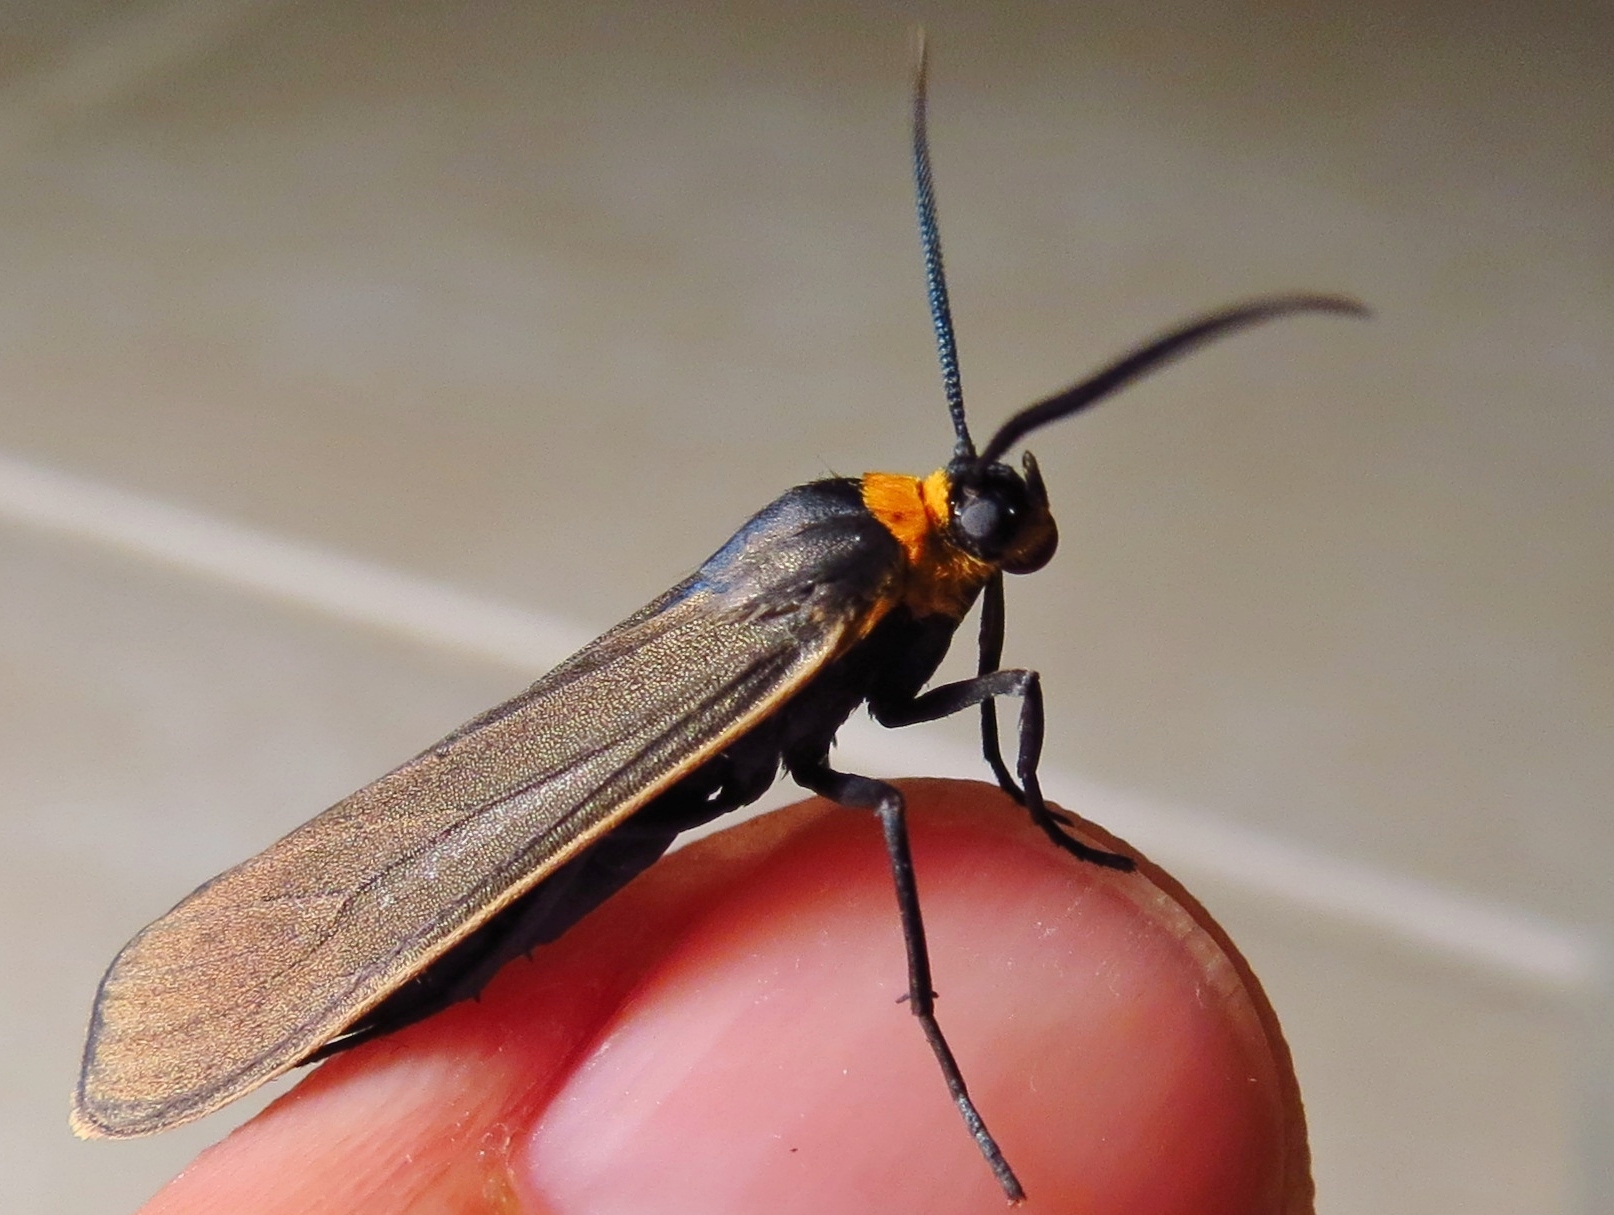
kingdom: Animalia
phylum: Arthropoda
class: Insecta
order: Lepidoptera
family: Erebidae
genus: Cisseps
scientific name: Cisseps fulvicollis
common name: Yellow-collared scape moth
